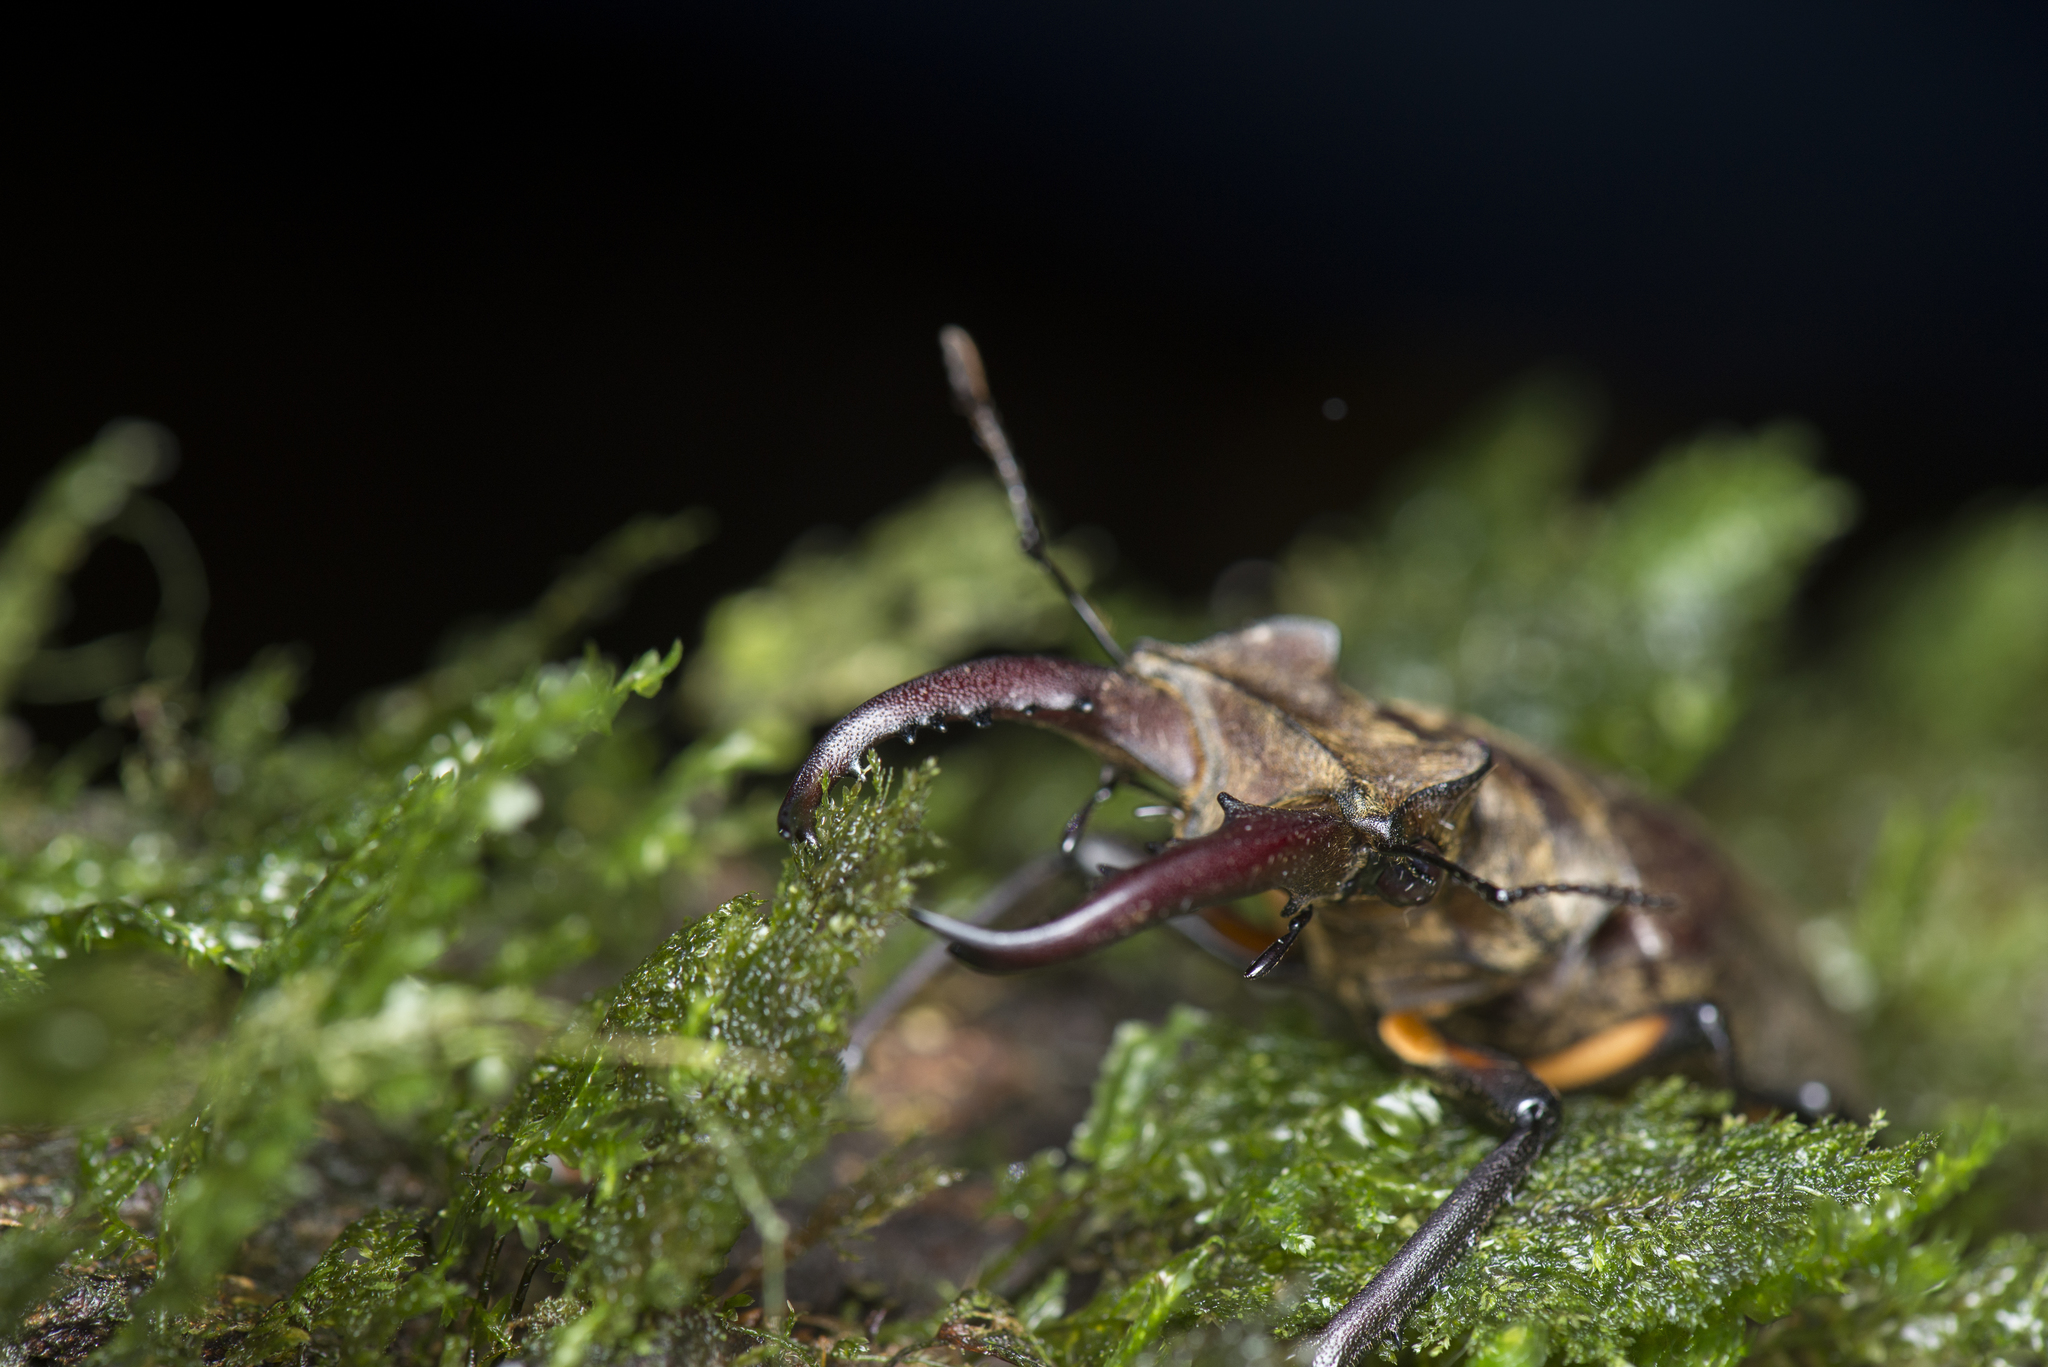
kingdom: Animalia
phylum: Arthropoda
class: Insecta
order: Coleoptera
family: Lucanidae
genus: Lucanus
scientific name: Lucanus maculifemoratus
